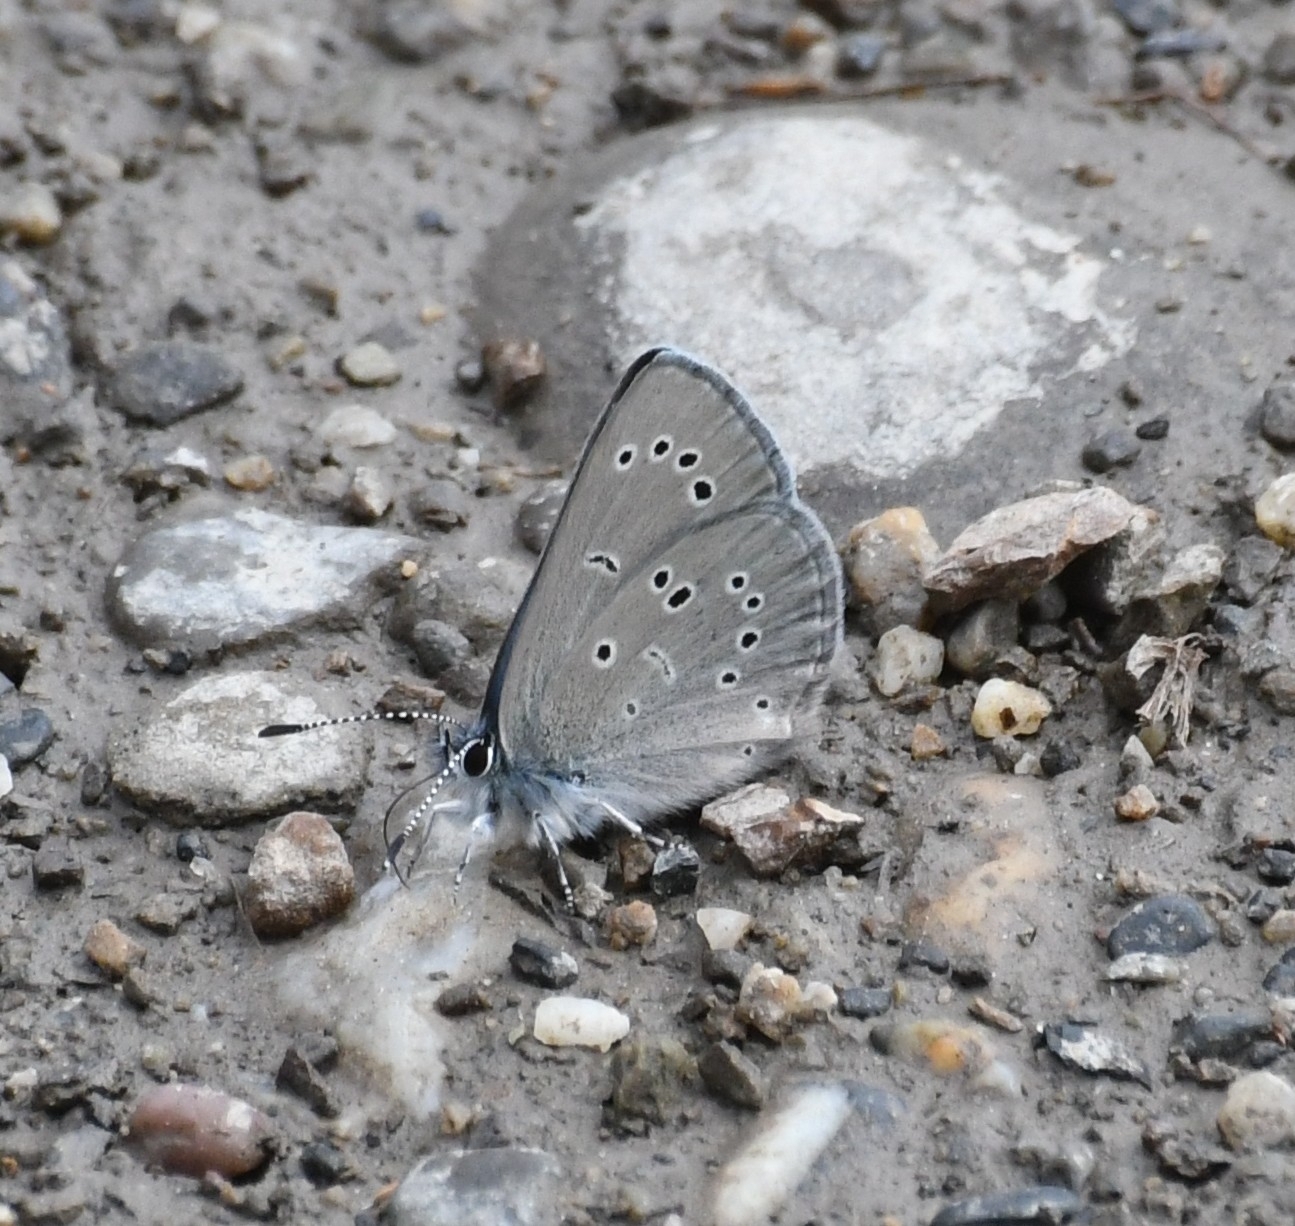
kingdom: Animalia
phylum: Arthropoda
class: Insecta
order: Lepidoptera
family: Lycaenidae
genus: Glaucopsyche
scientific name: Glaucopsyche lygdamus
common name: Silvery blue
